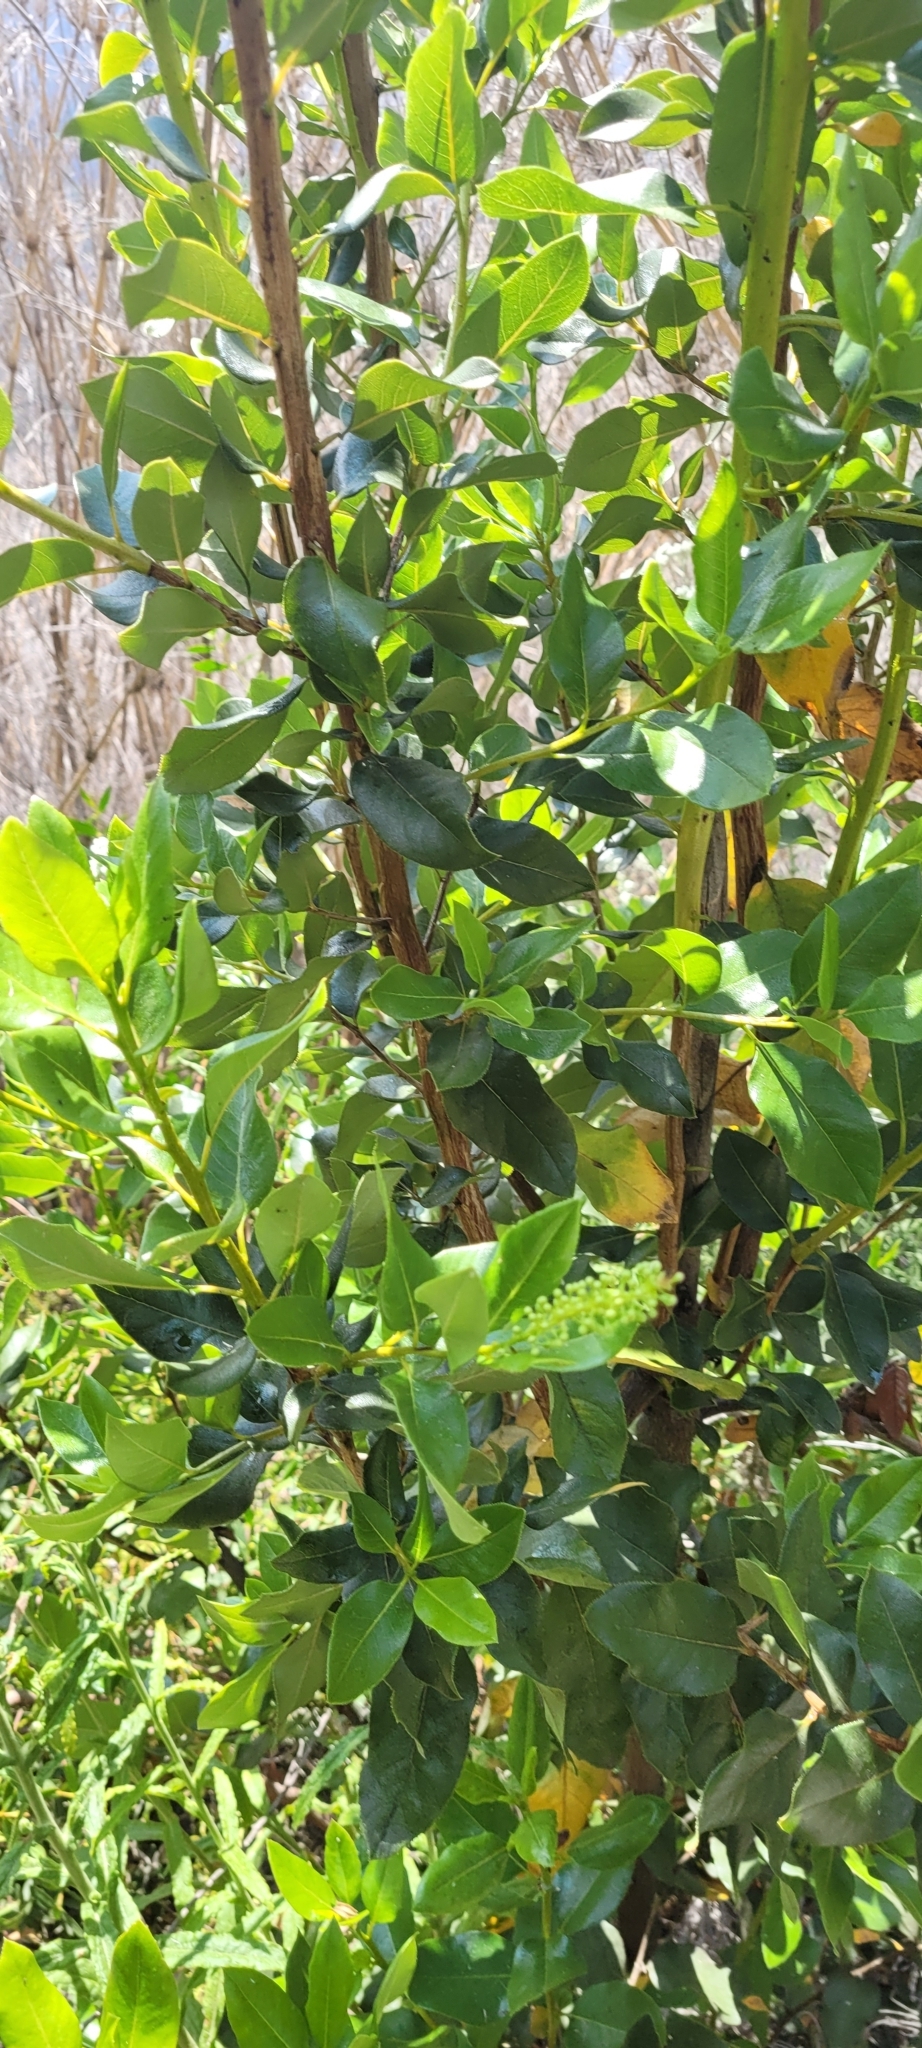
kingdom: Plantae
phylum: Tracheophyta
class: Magnoliopsida
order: Escalloniales
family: Escalloniaceae
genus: Escallonia
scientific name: Escallonia pulverulenta
